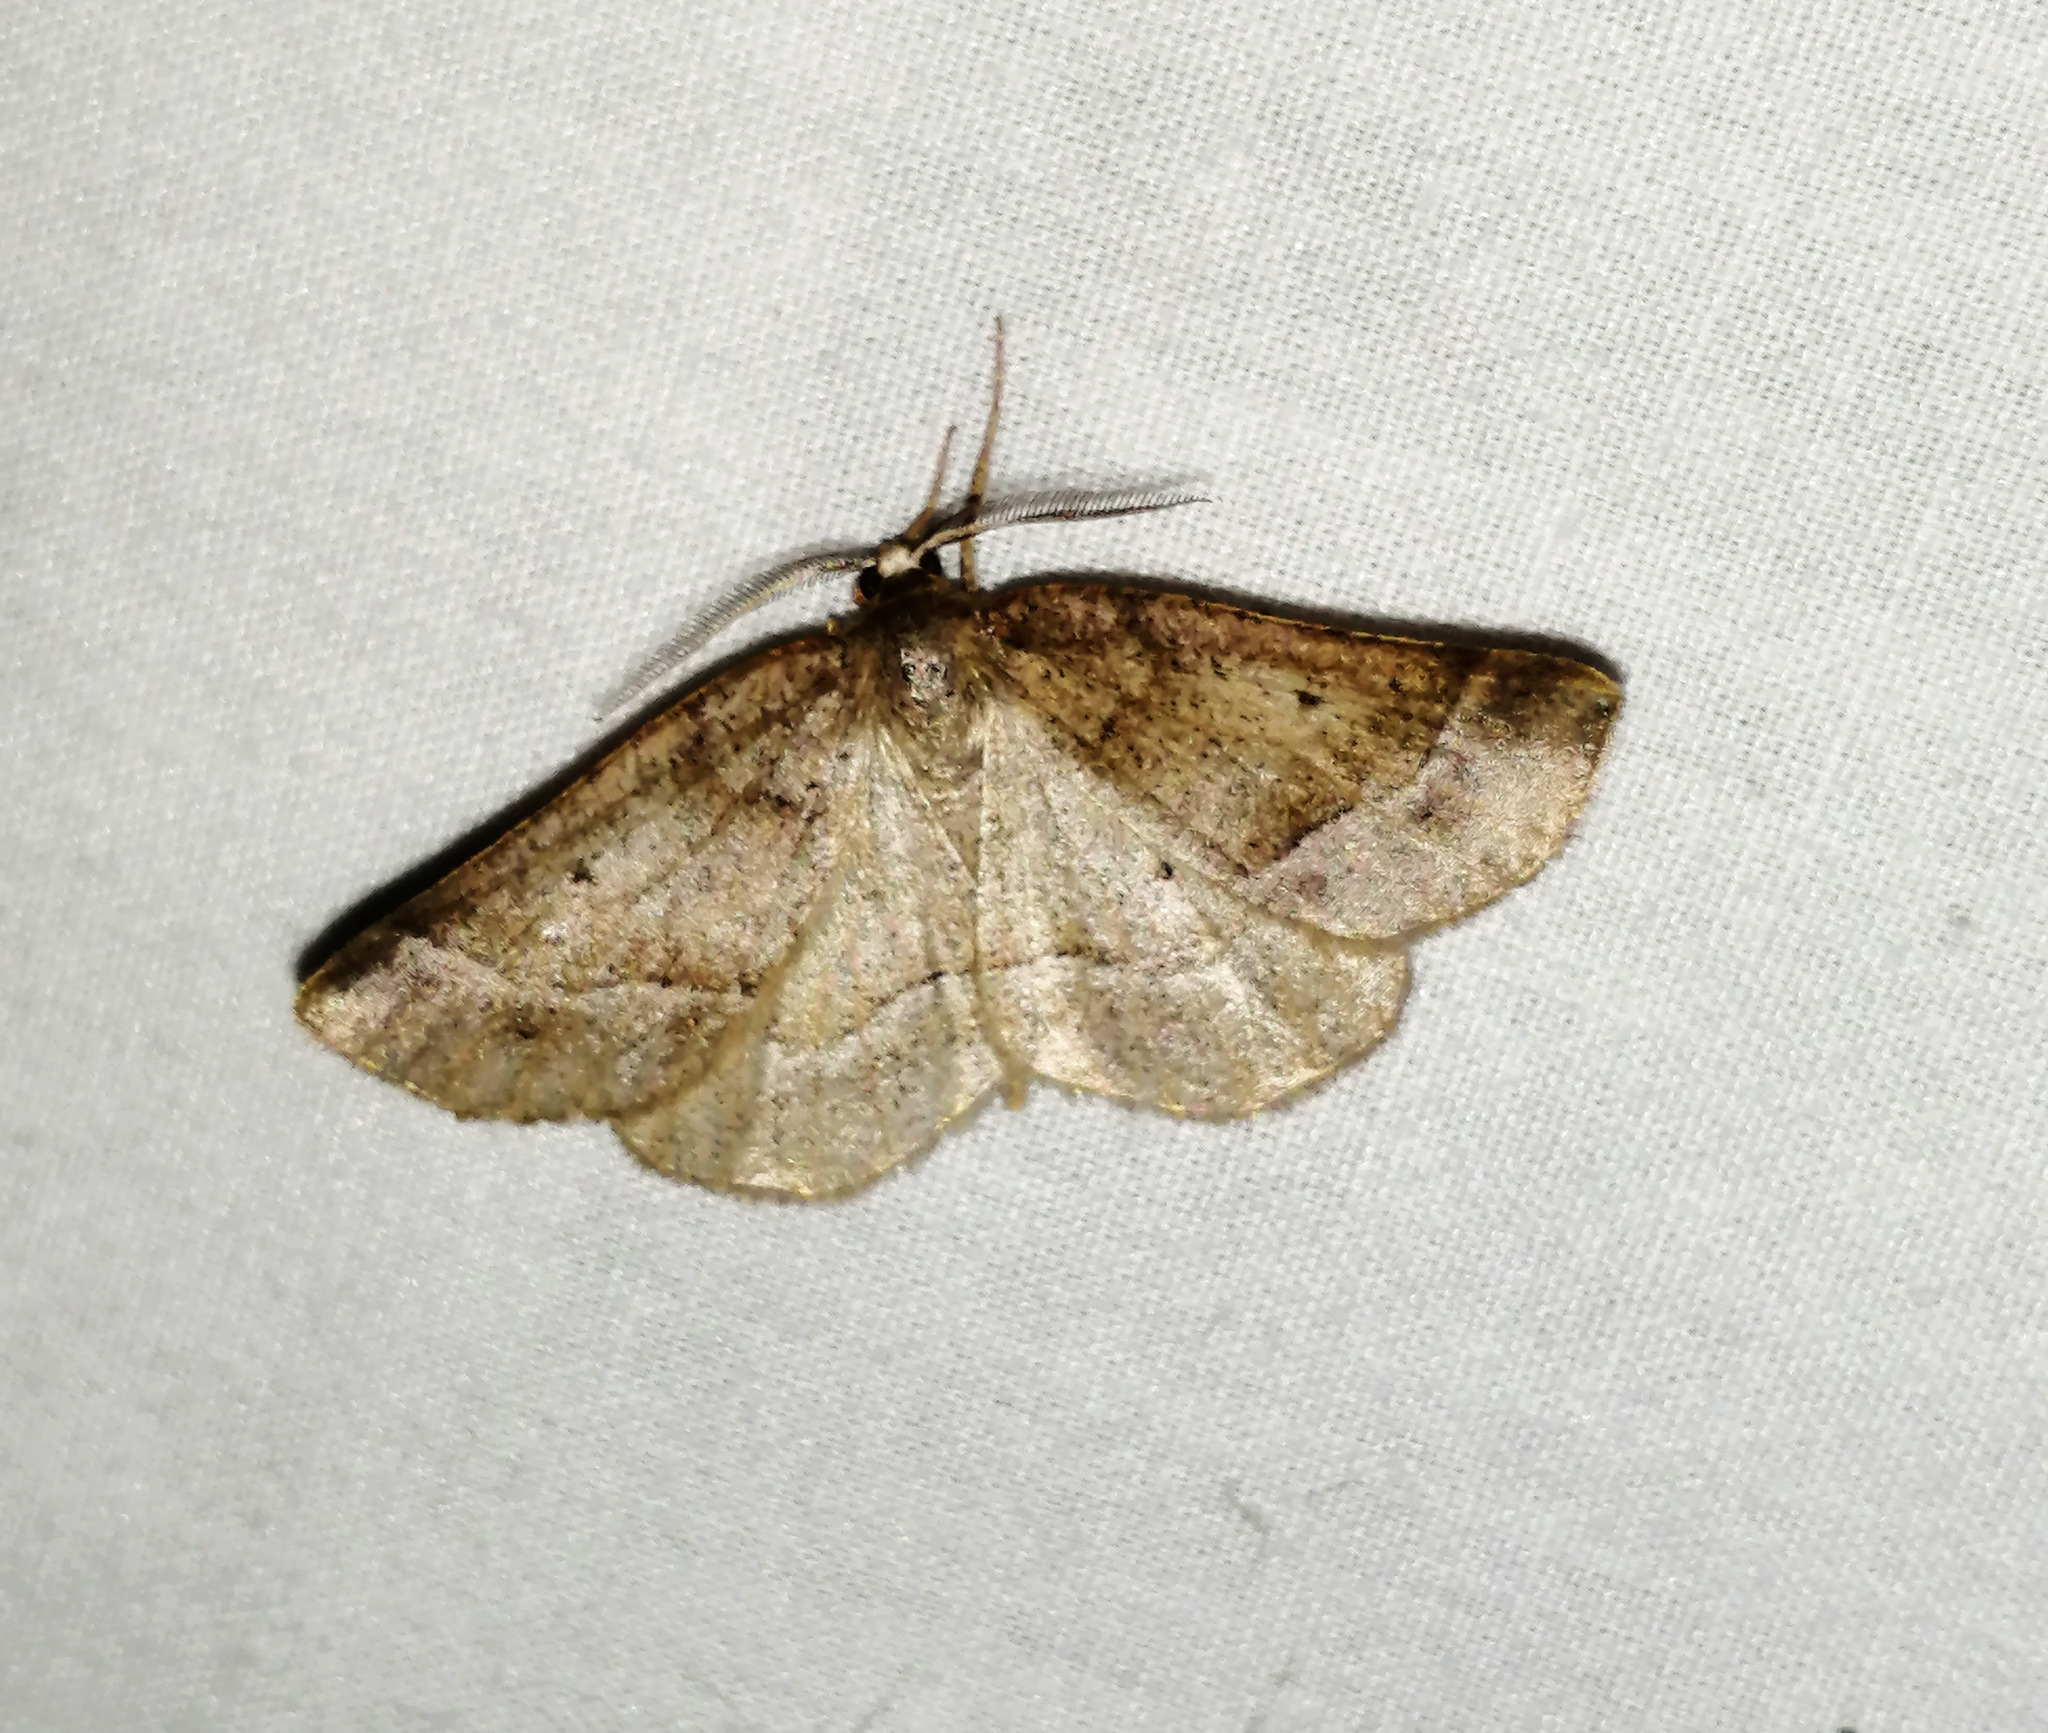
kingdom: Animalia
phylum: Arthropoda
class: Insecta
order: Lepidoptera
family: Geometridae
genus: Metarranthis
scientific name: Metarranthis warneri
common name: Warner's metarranthis moth
